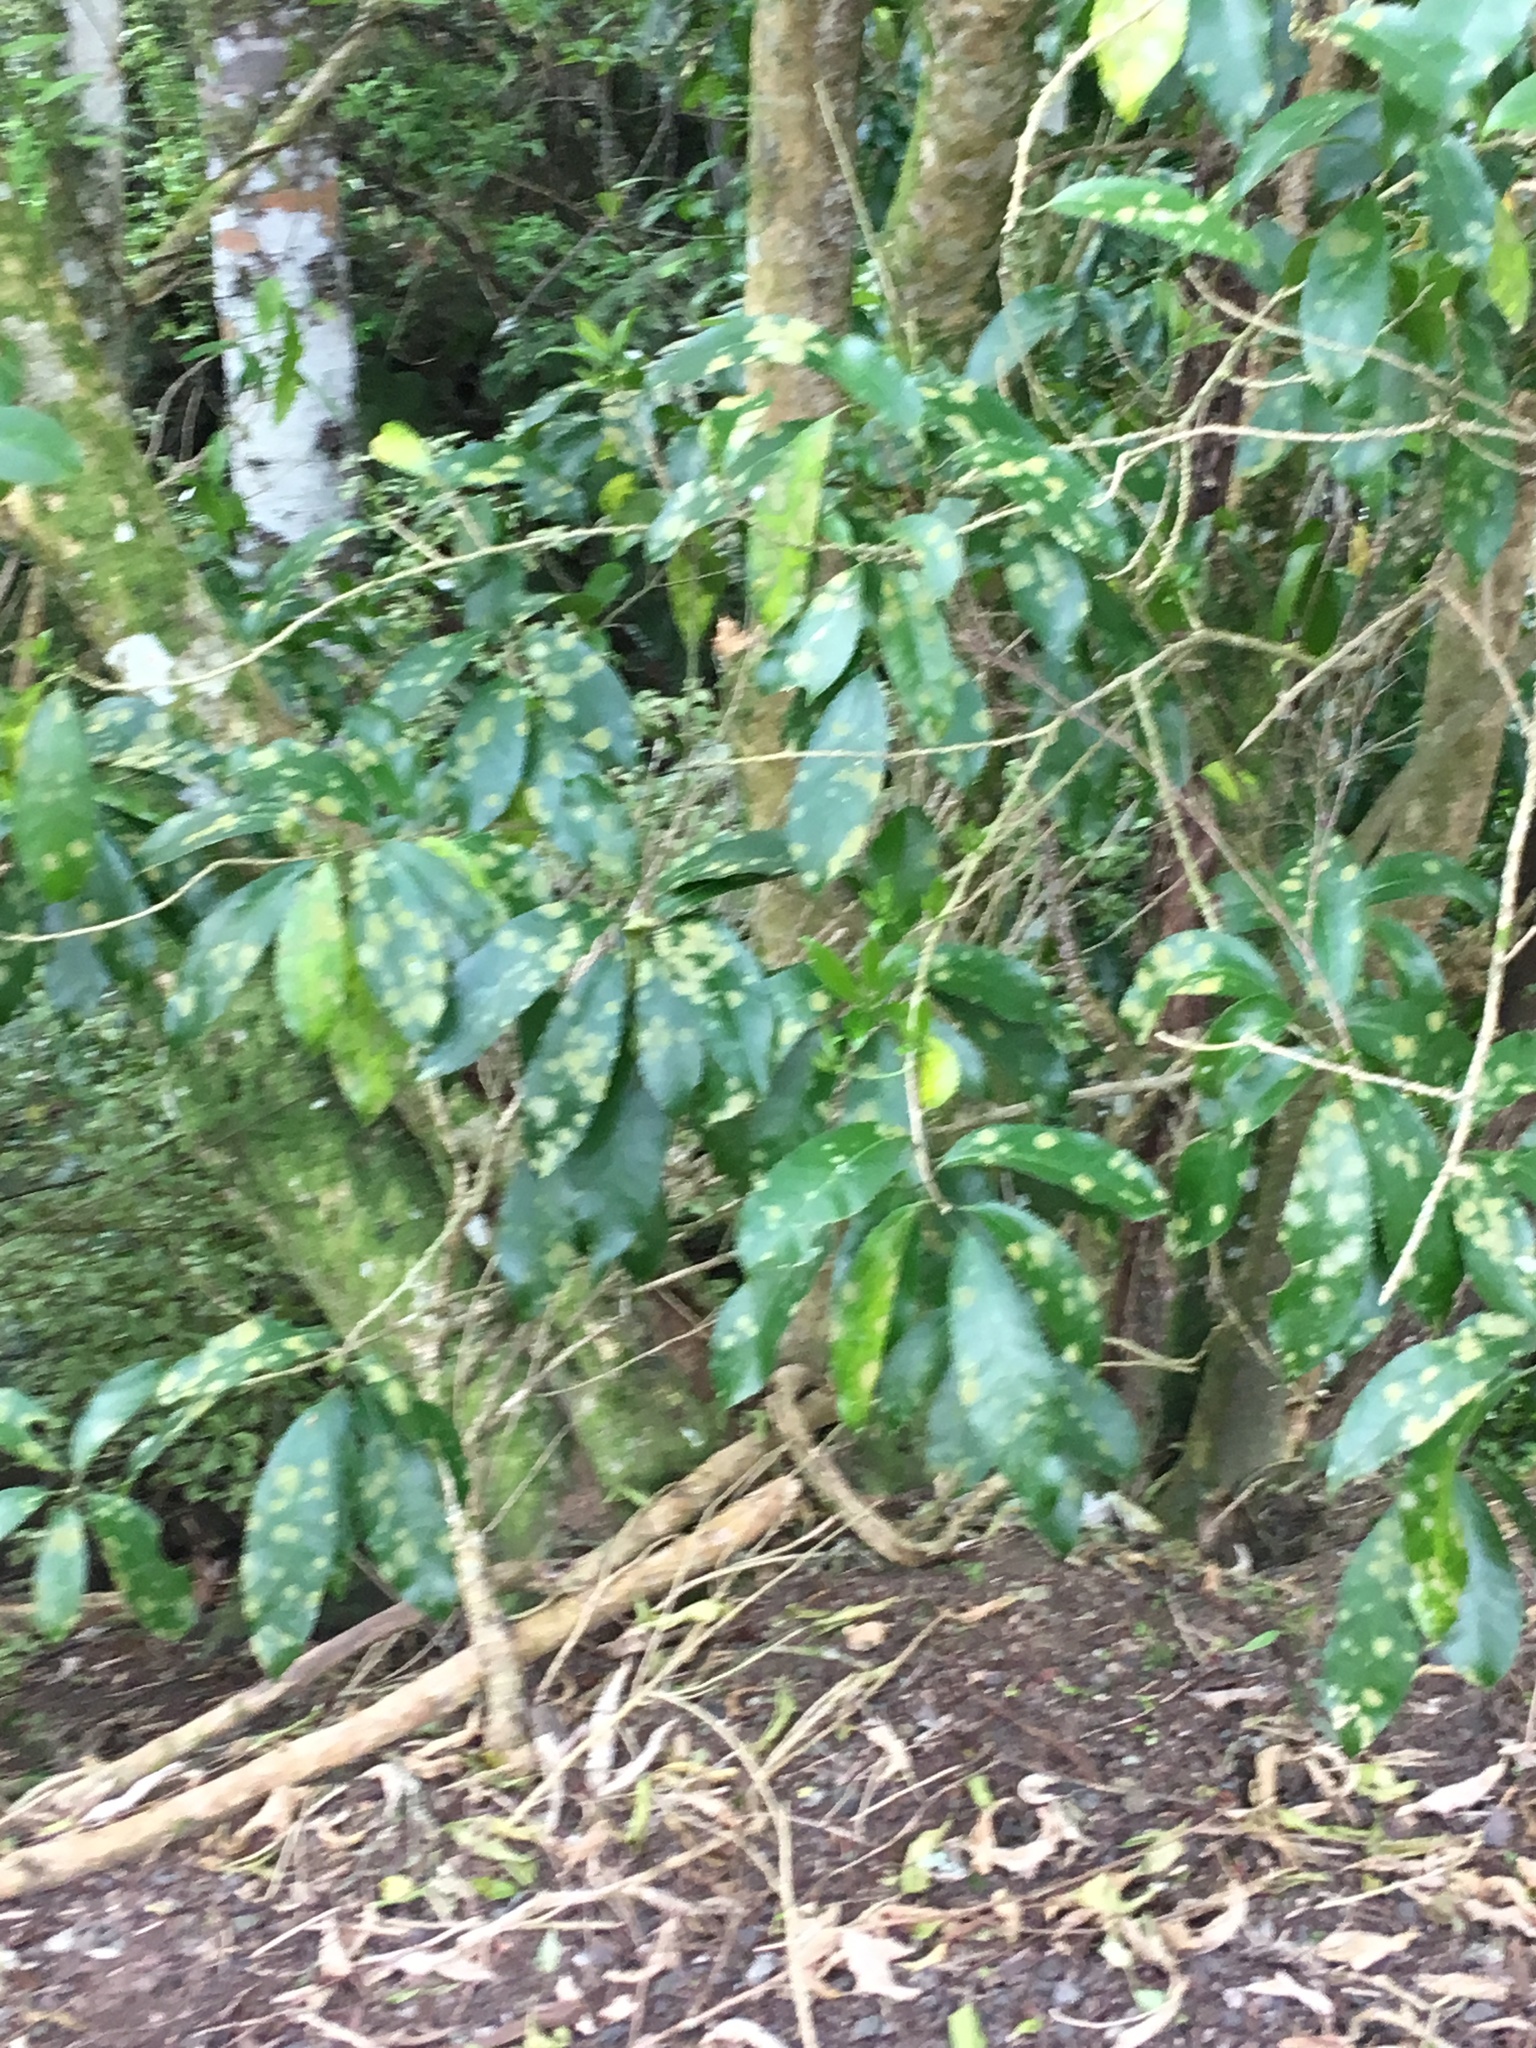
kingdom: Plantae
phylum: Tracheophyta
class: Magnoliopsida
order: Malpighiales
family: Violaceae
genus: Melicytus
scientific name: Melicytus ramiflorus
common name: Mahoe
